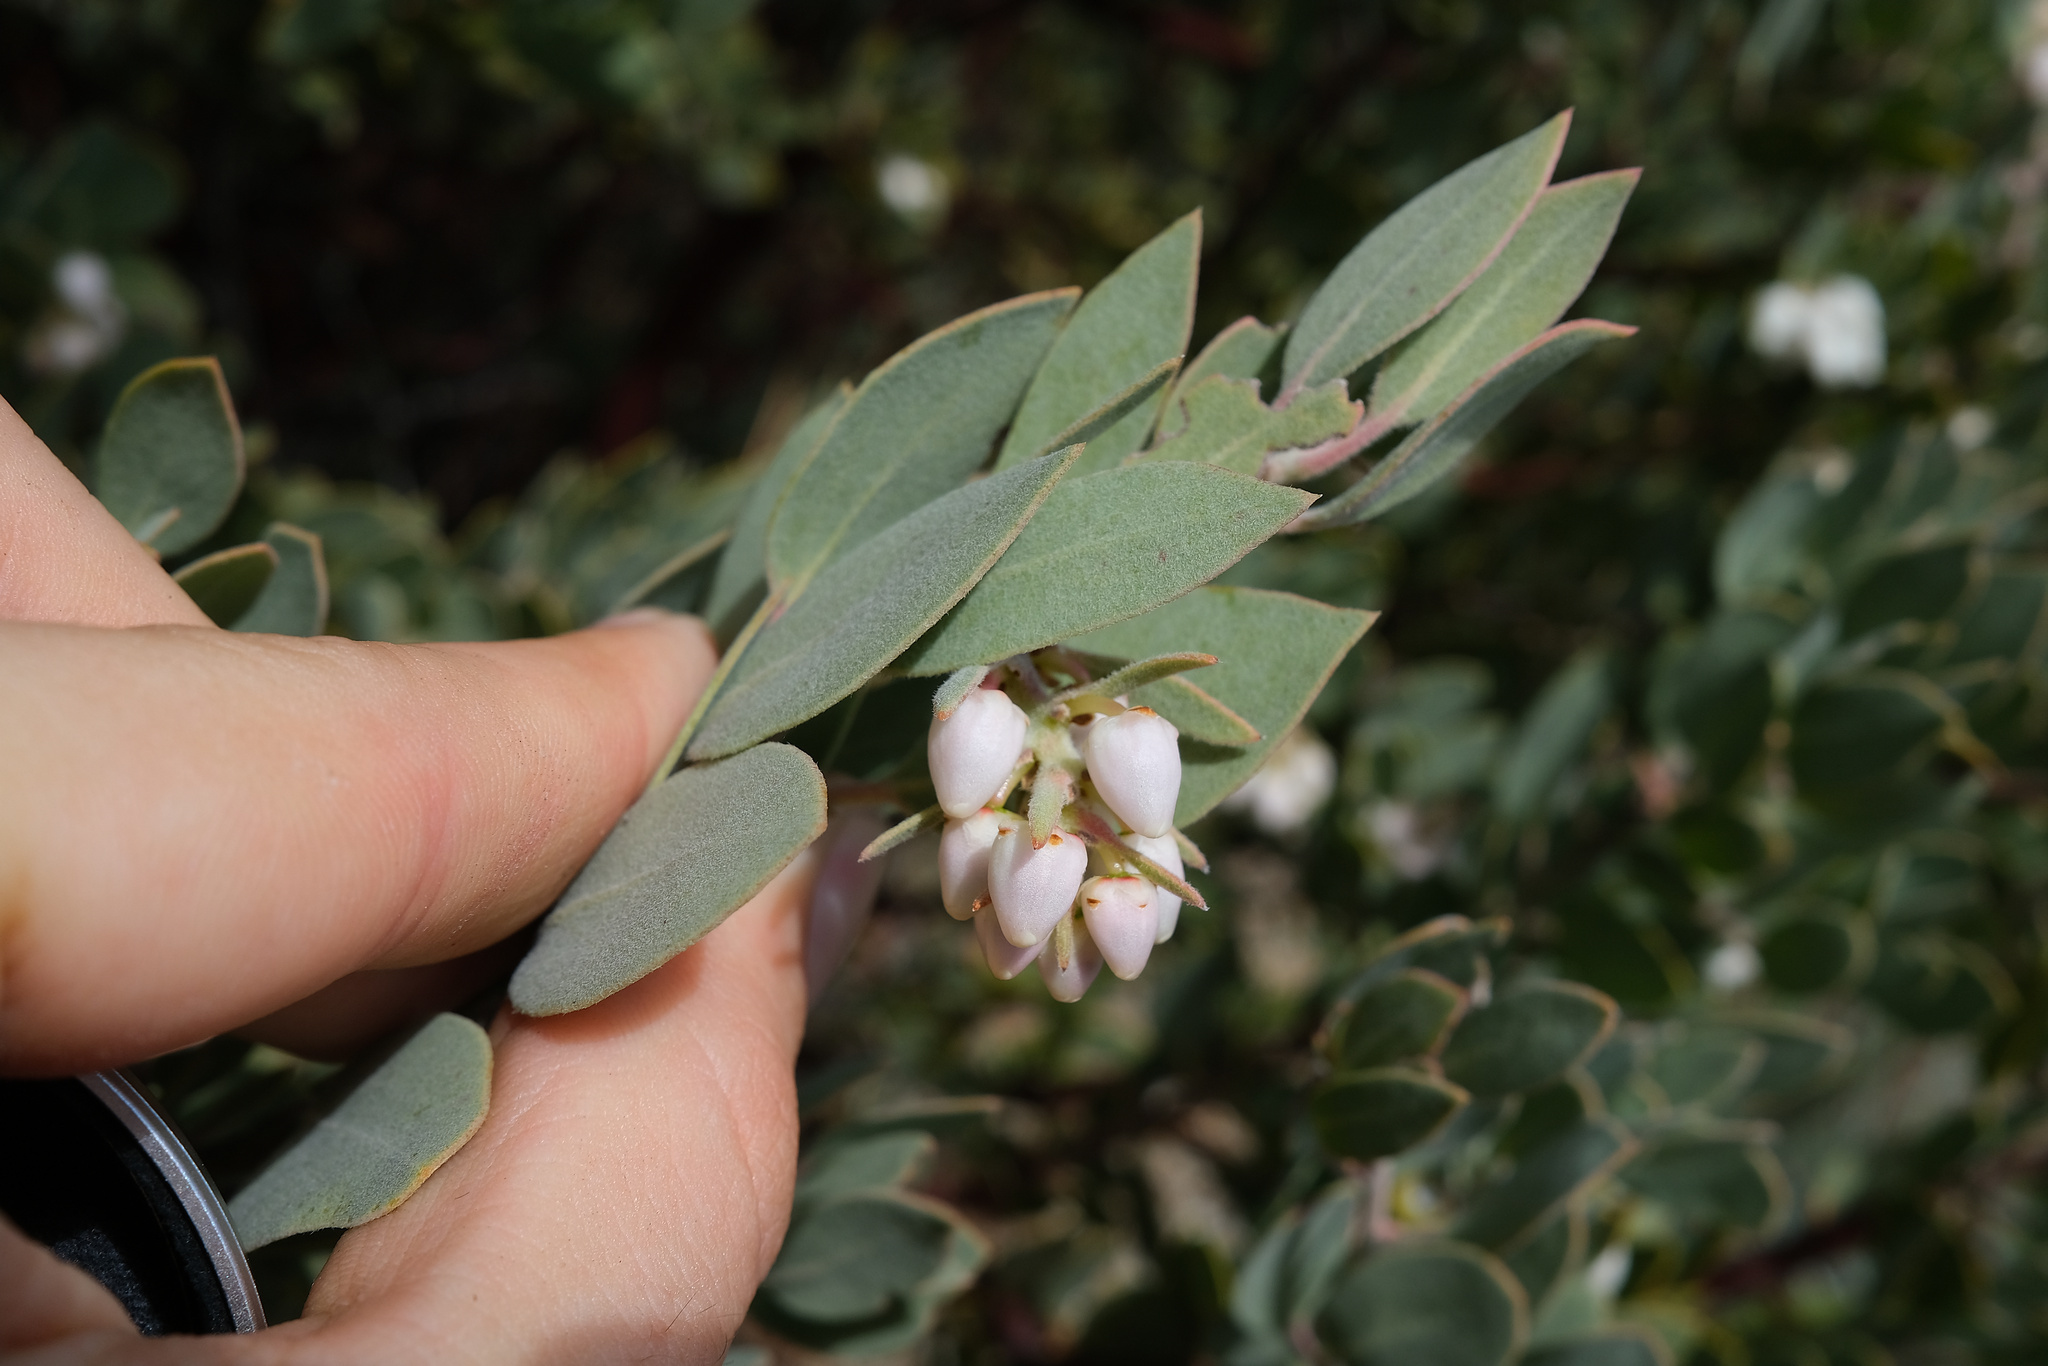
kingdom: Plantae
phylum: Tracheophyta
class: Magnoliopsida
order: Ericales
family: Ericaceae
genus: Arctostaphylos
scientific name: Arctostaphylos obispoensis
